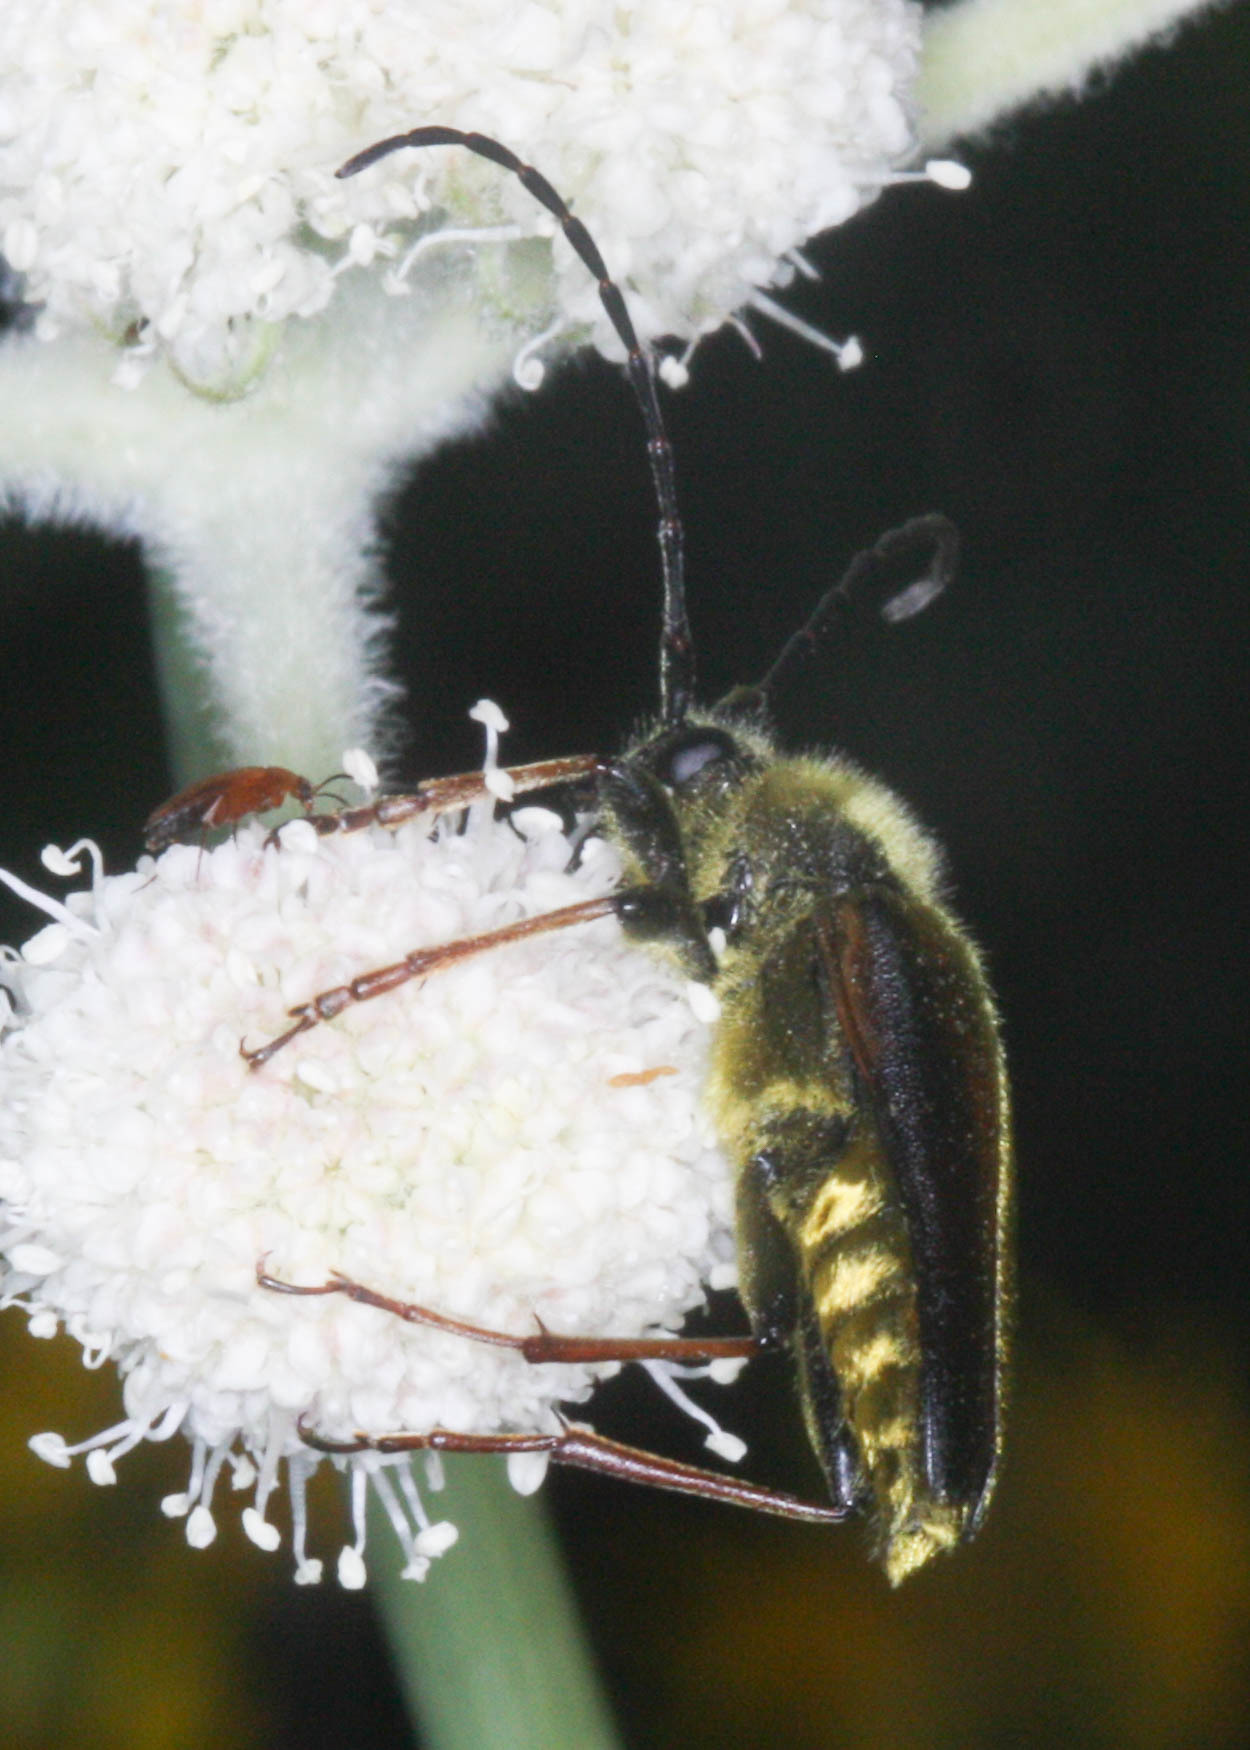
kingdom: Animalia
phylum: Arthropoda
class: Insecta
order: Coleoptera
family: Cerambycidae
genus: Cosmosalia
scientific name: Cosmosalia chrysocoma
